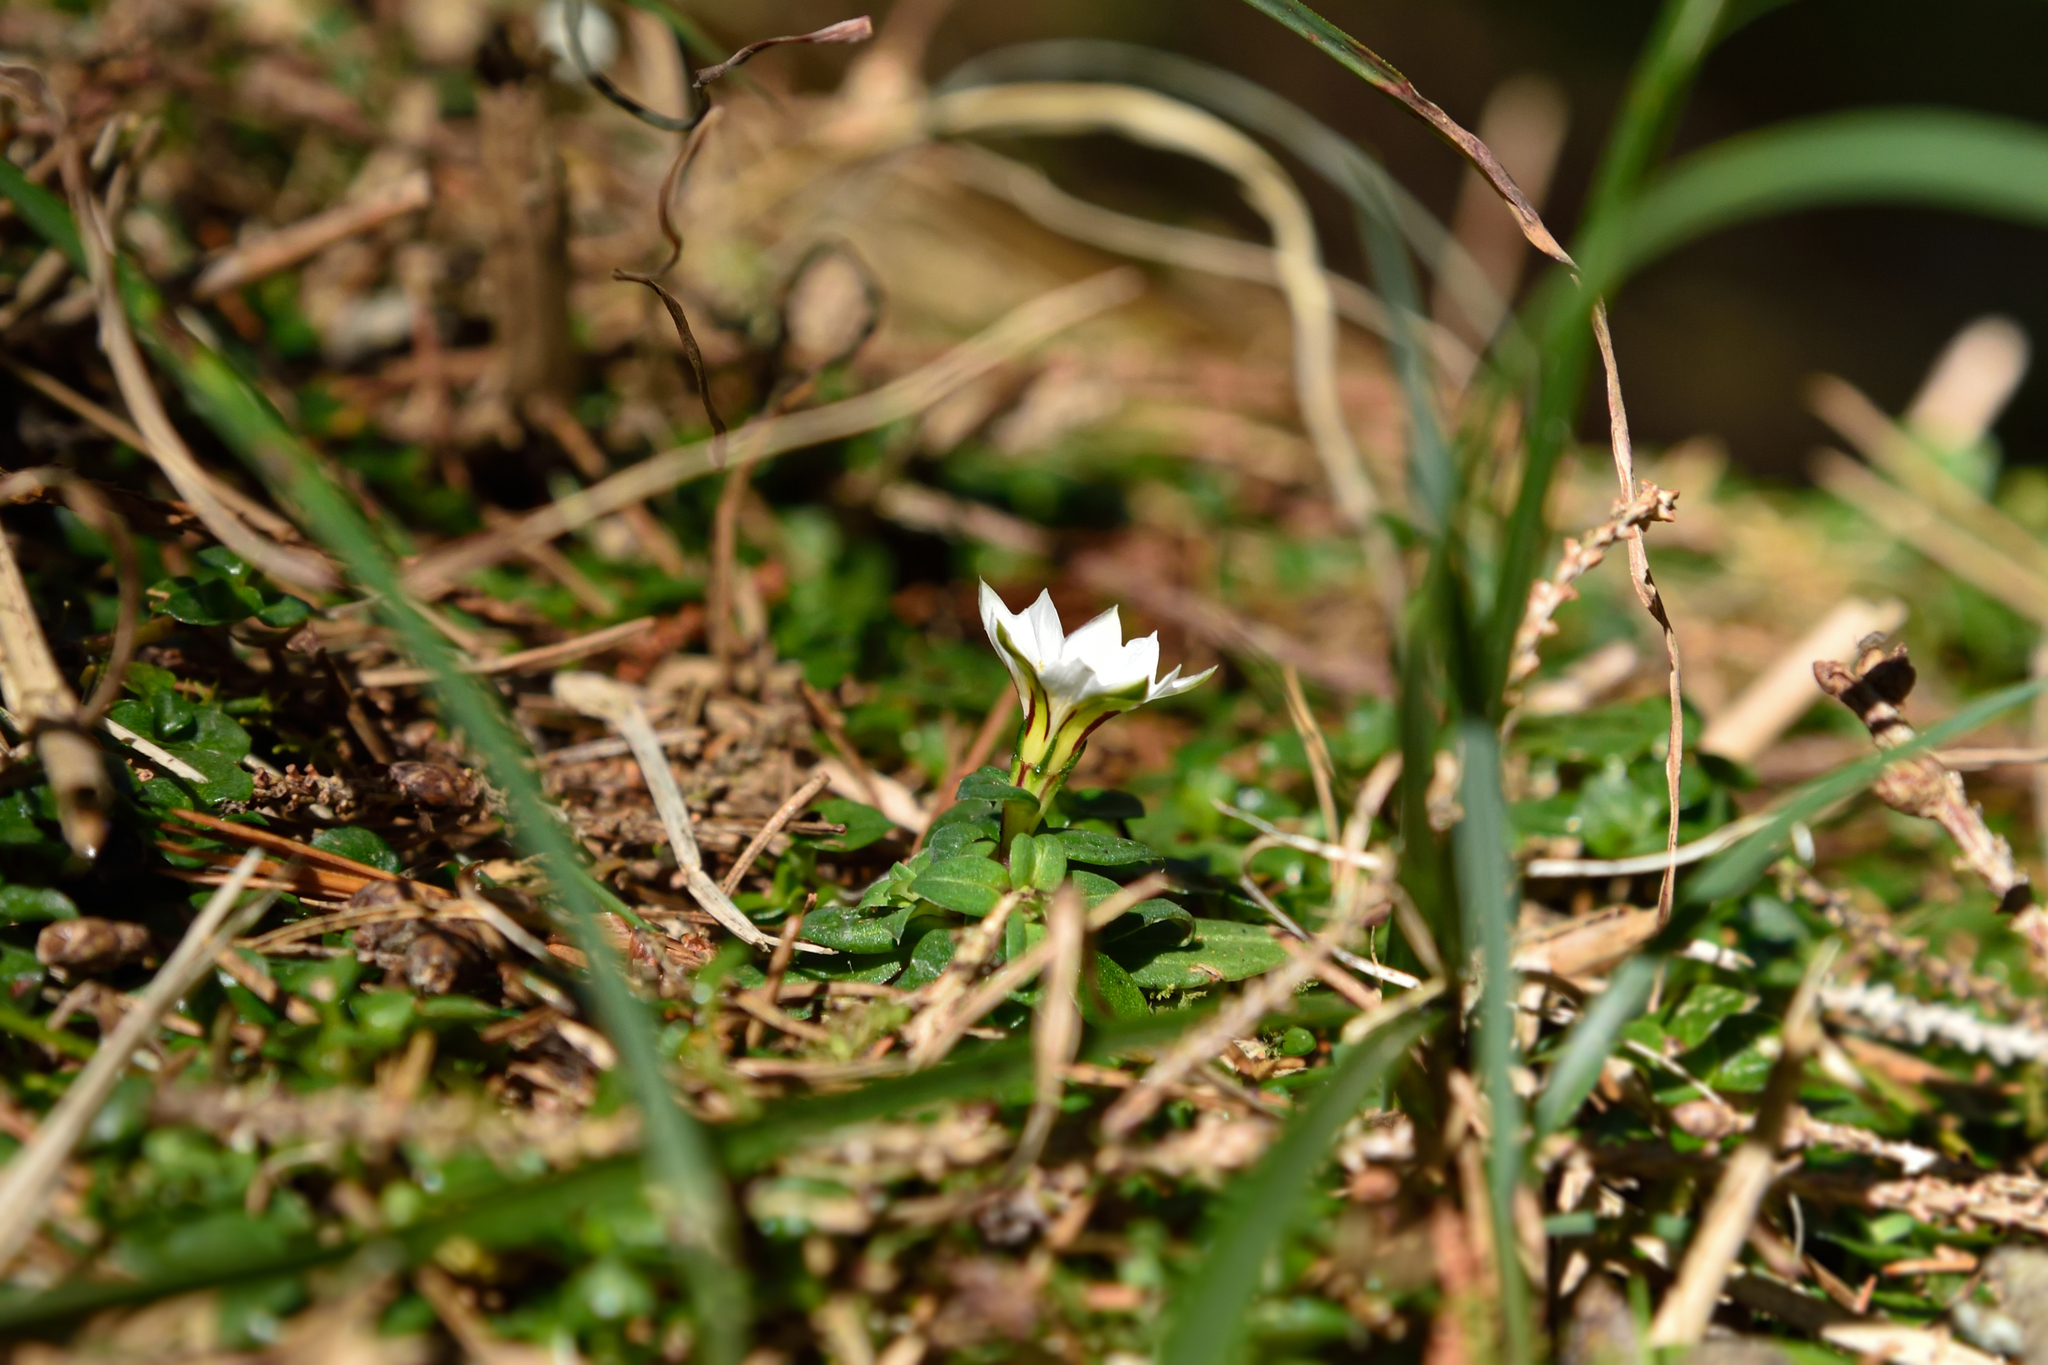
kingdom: Plantae
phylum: Tracheophyta
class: Magnoliopsida
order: Gentianales
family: Gentianaceae
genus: Gentiana
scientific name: Gentiana flavomaculata
